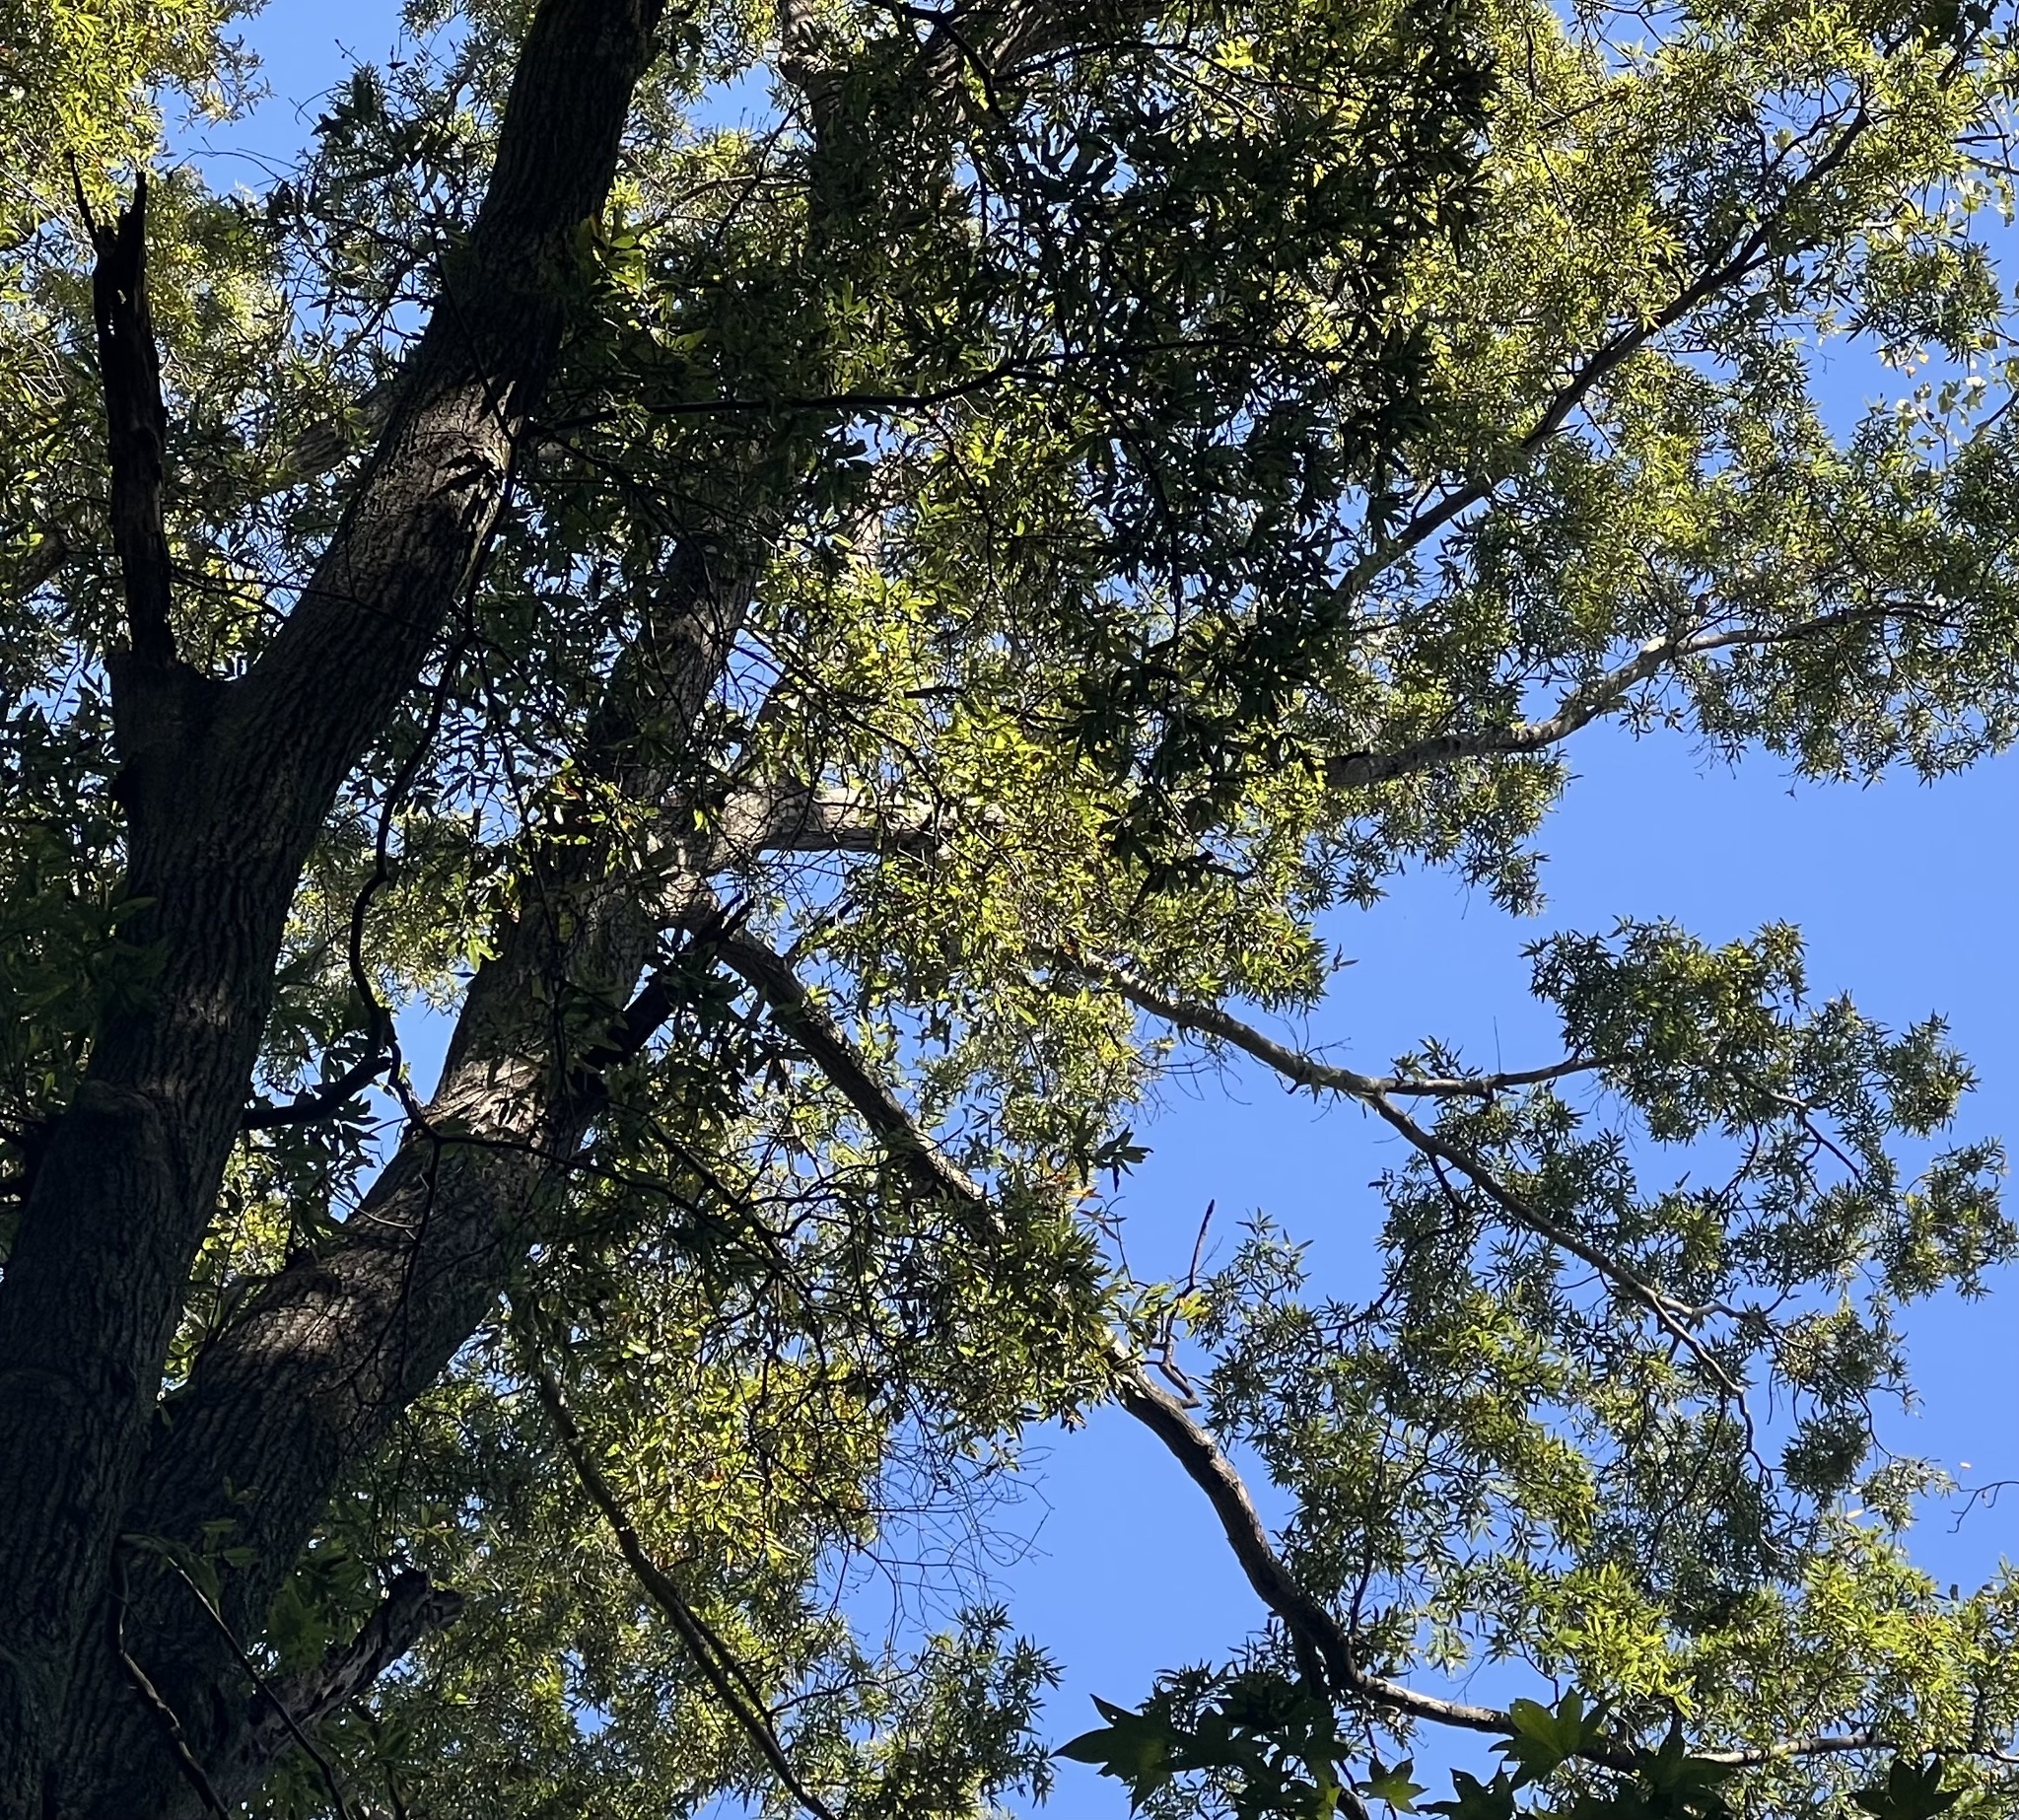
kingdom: Plantae
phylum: Tracheophyta
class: Magnoliopsida
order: Fagales
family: Fagaceae
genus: Quercus
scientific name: Quercus phellos
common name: Willow oak
